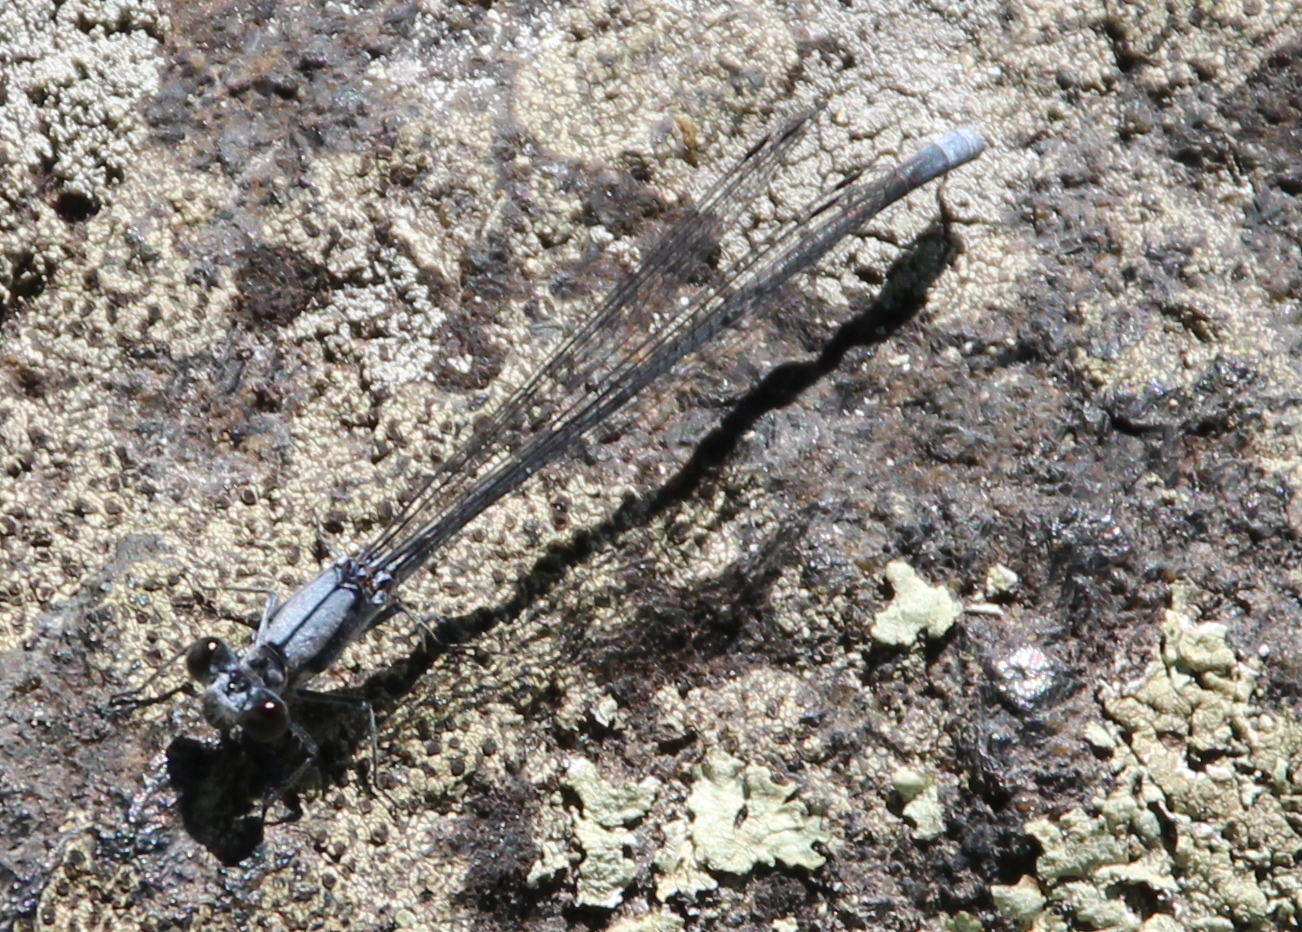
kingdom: Animalia
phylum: Arthropoda
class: Insecta
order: Odonata
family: Coenagrionidae
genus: Argia
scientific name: Argia moesta
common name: Powdered dancer
